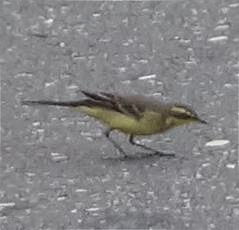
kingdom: Animalia
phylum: Chordata
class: Aves
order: Passeriformes
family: Motacillidae
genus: Motacilla
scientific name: Motacilla tschutschensis
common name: Eastern yellow wagtail
